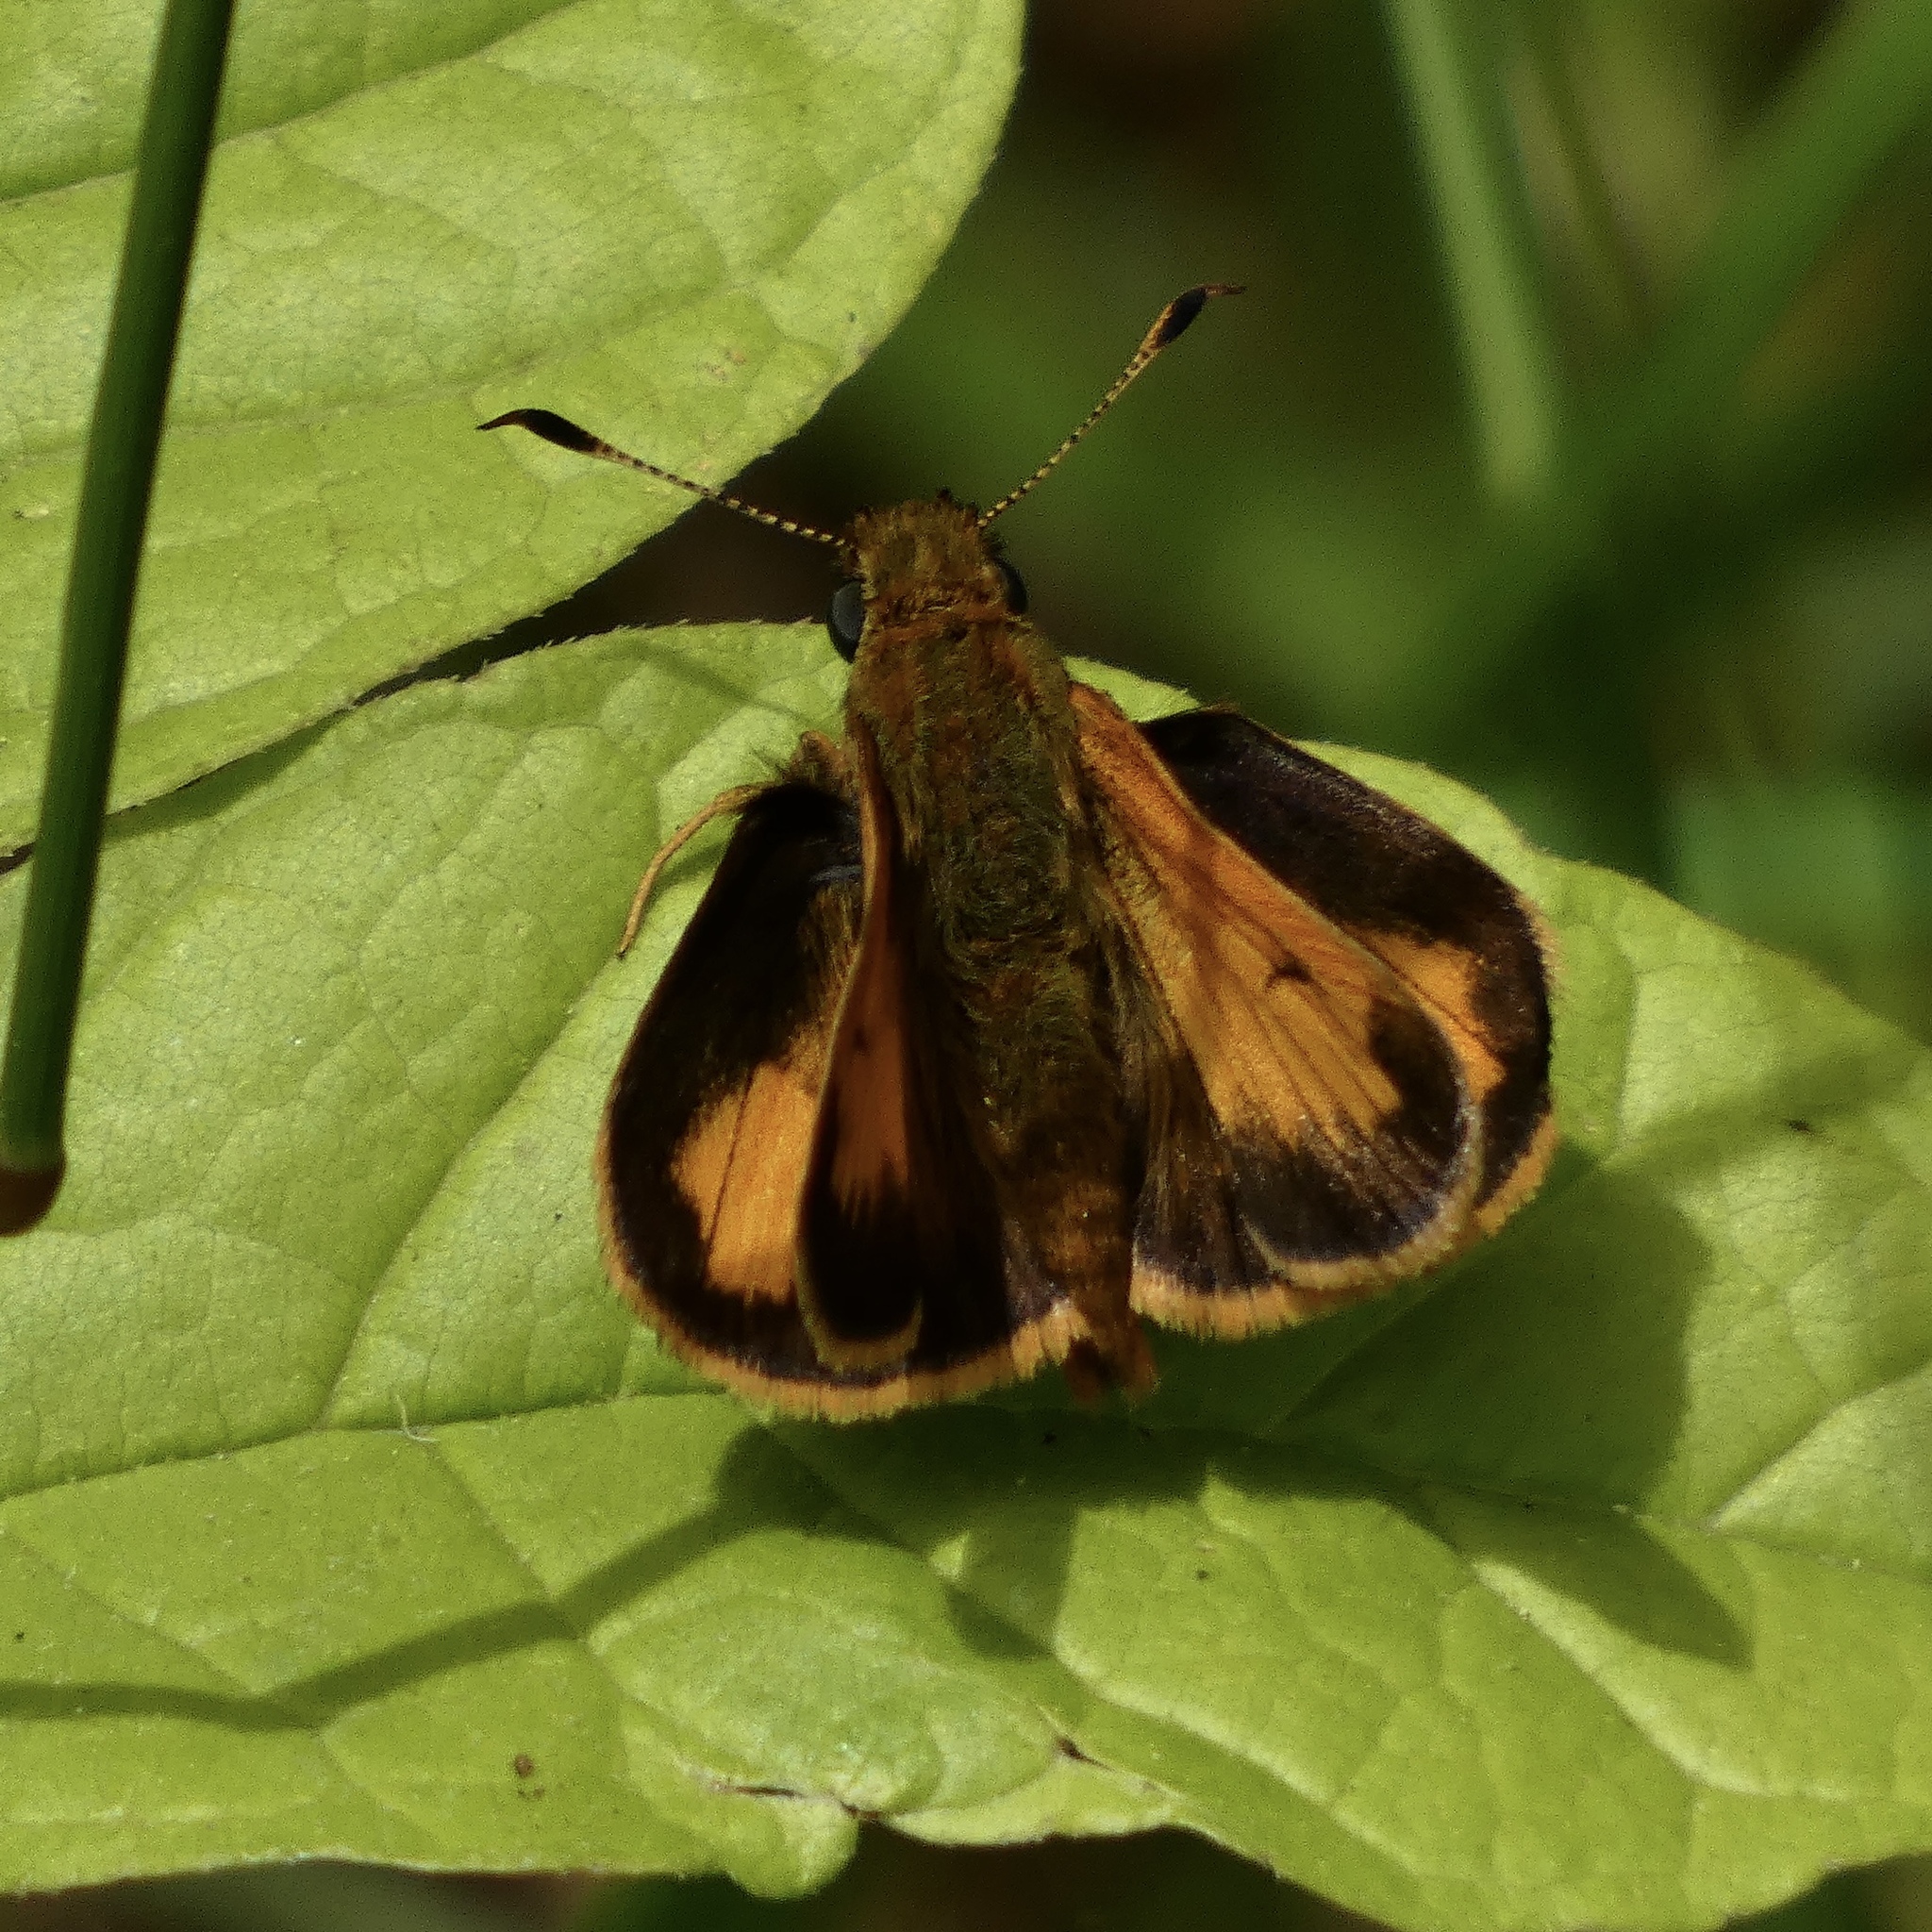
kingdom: Animalia
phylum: Arthropoda
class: Insecta
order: Lepidoptera
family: Hesperiidae
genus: Lon
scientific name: Lon hobomok
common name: Hobomok skipper
